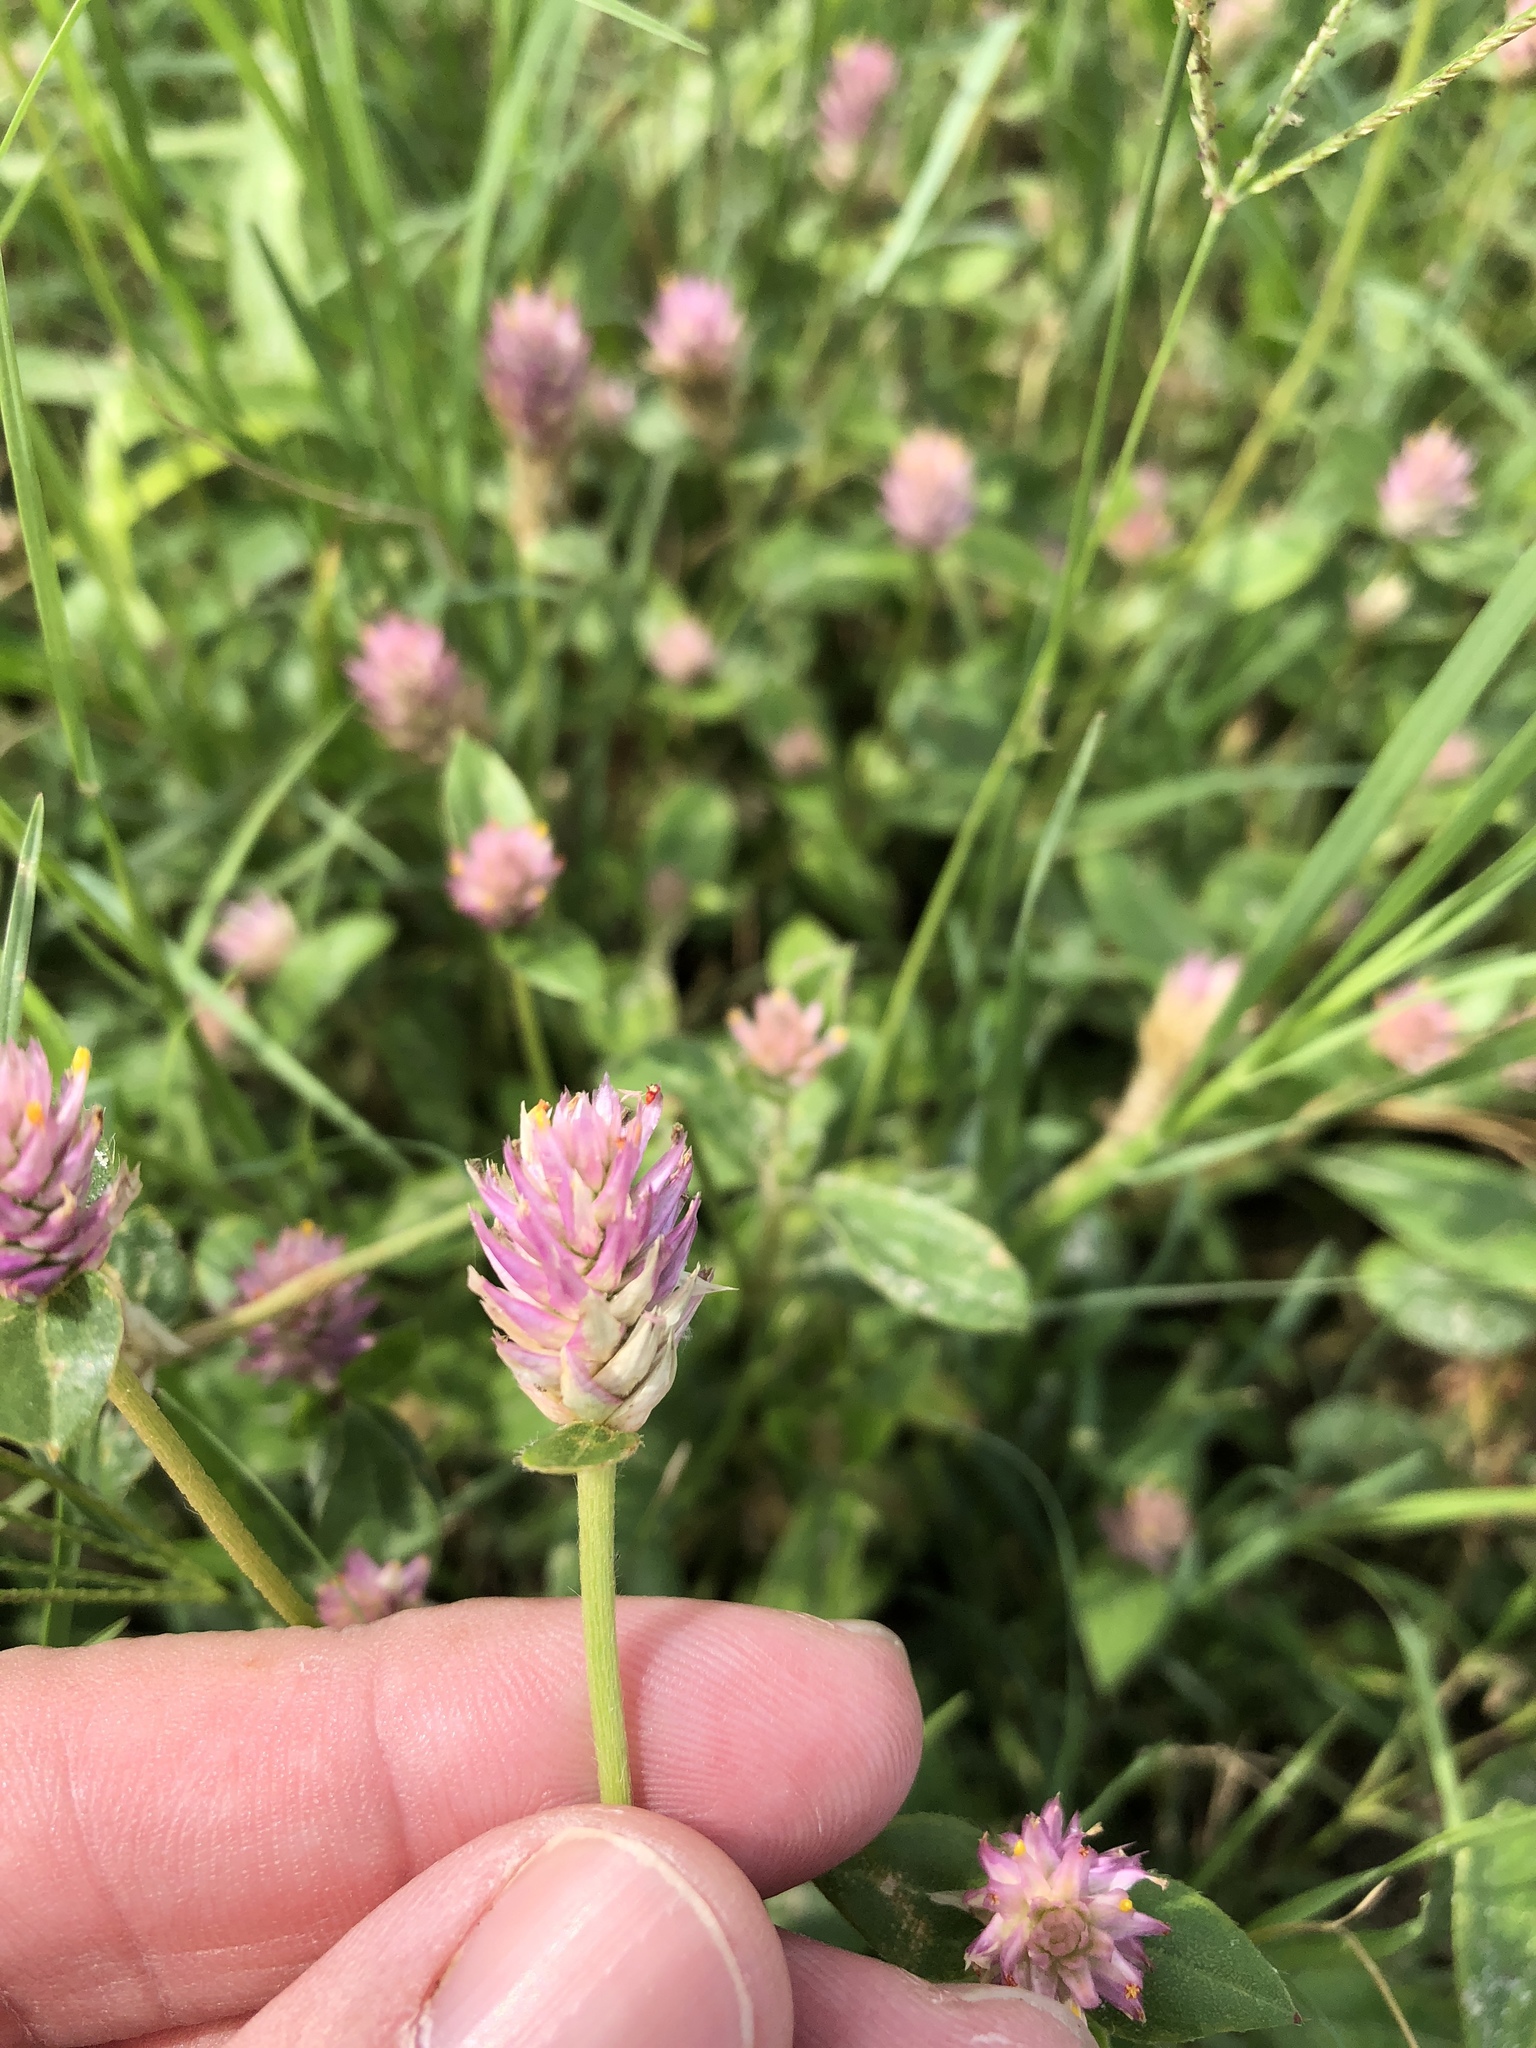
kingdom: Plantae
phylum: Tracheophyta
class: Magnoliopsida
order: Caryophyllales
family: Amaranthaceae
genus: Gomphrena
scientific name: Gomphrena serrata
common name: Arrasa con todo
